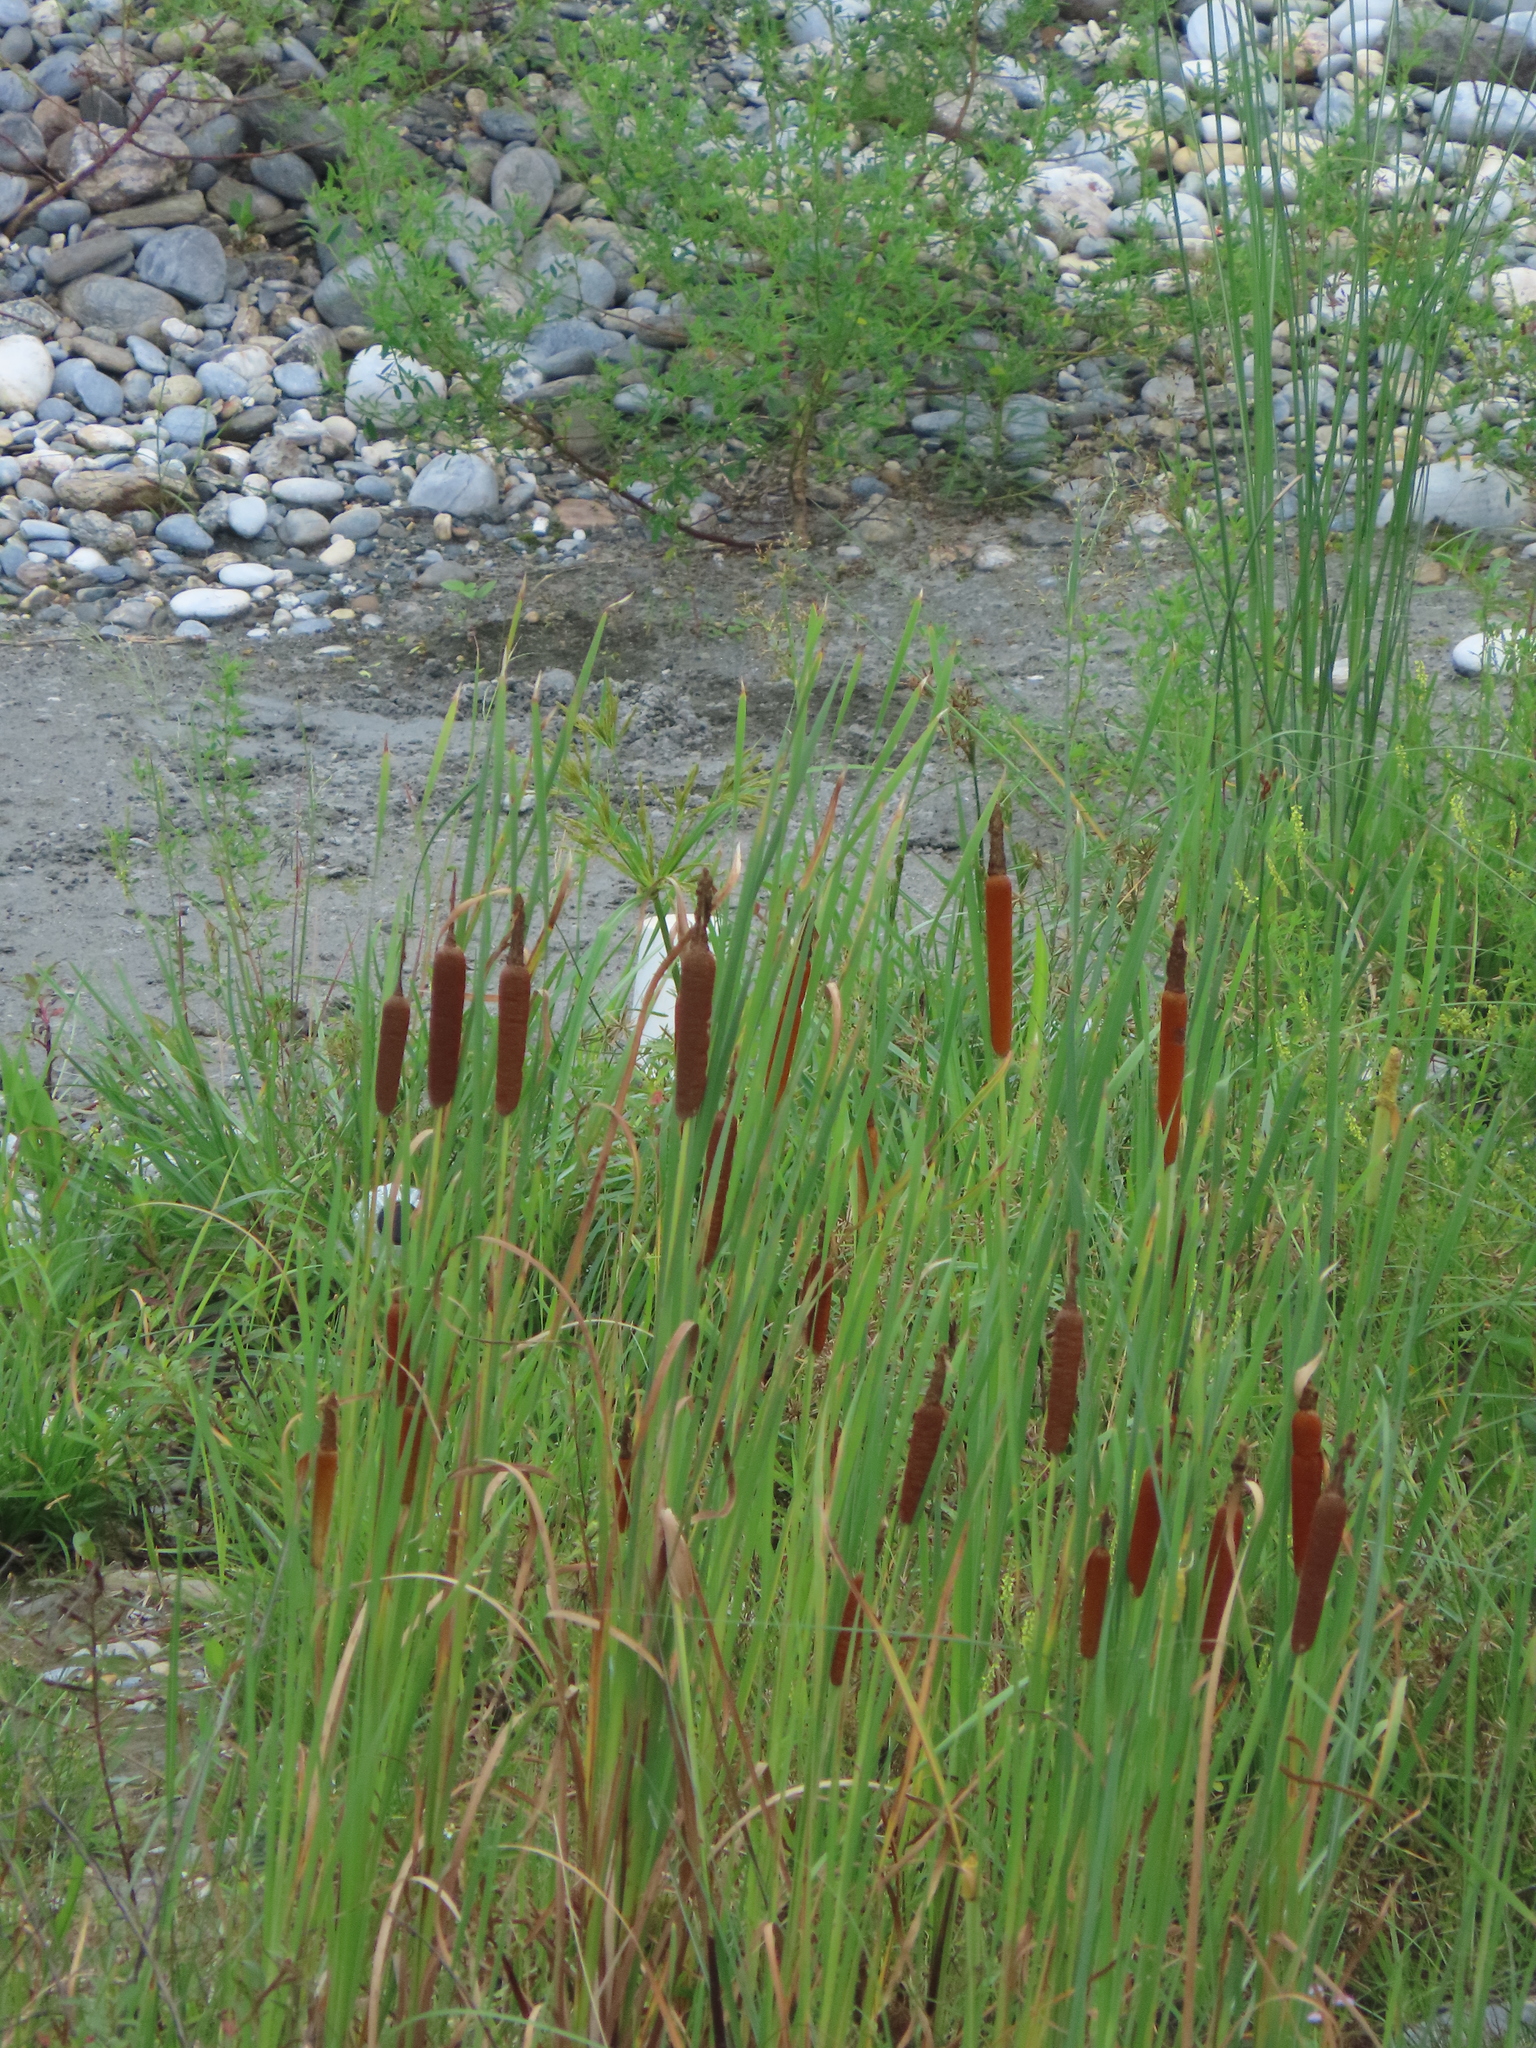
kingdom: Plantae
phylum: Tracheophyta
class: Liliopsida
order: Poales
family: Typhaceae
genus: Typha
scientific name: Typha orientalis
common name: Bullrush
